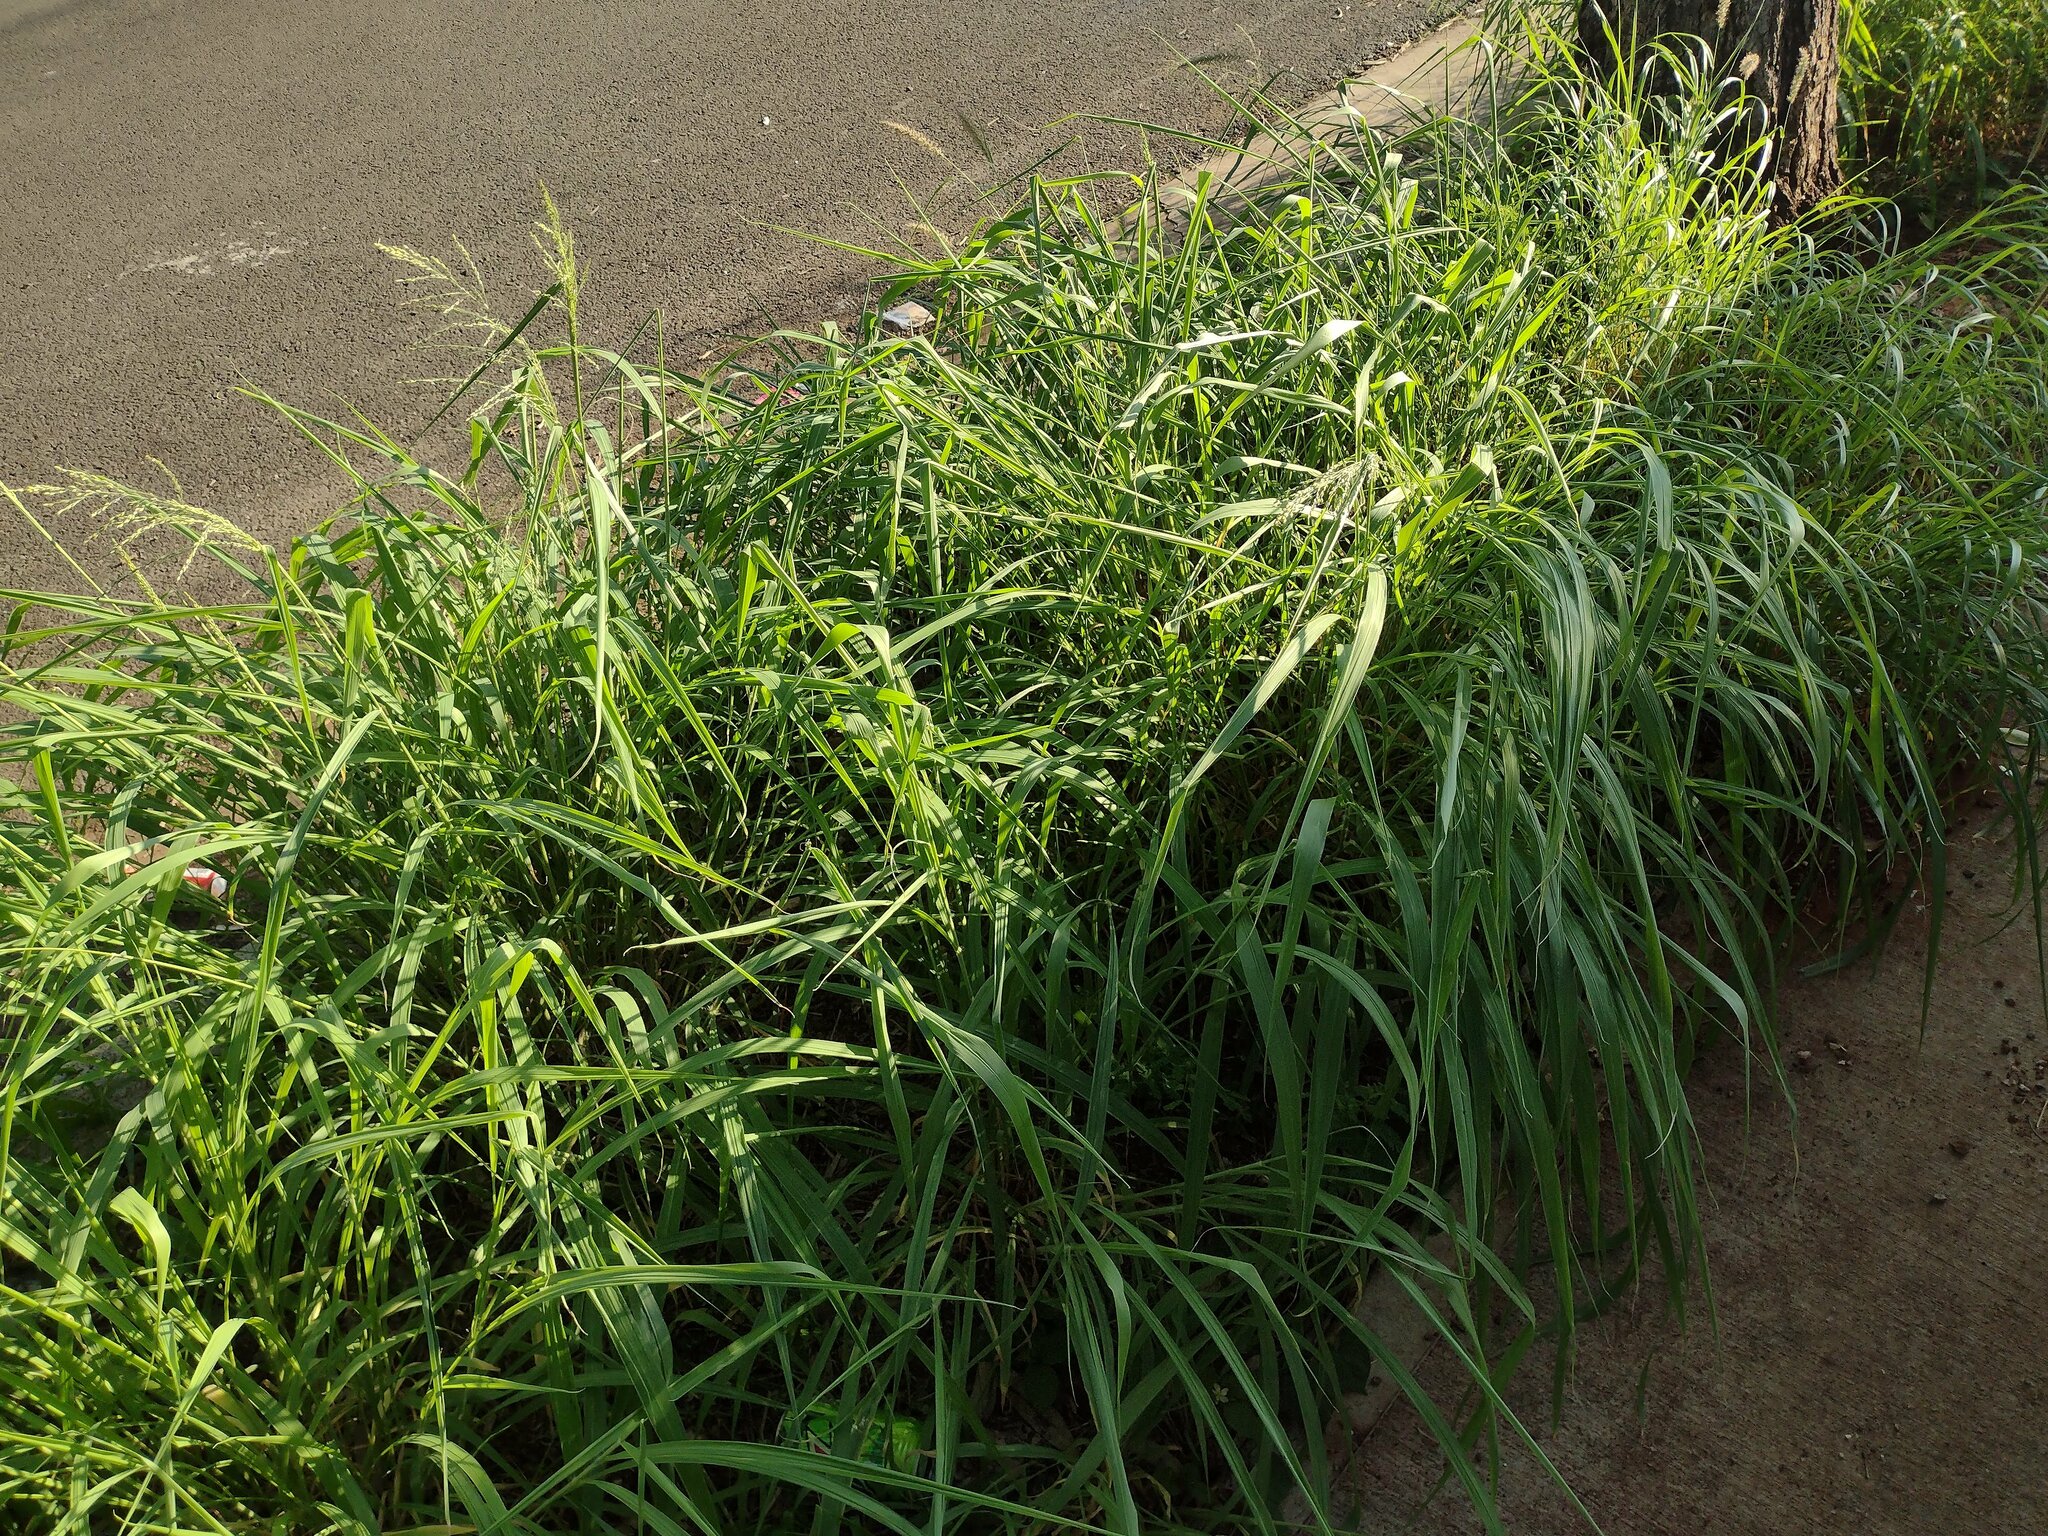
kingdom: Plantae
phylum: Tracheophyta
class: Liliopsida
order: Poales
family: Poaceae
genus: Megathyrsus
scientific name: Megathyrsus maximus
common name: Guineagrass
